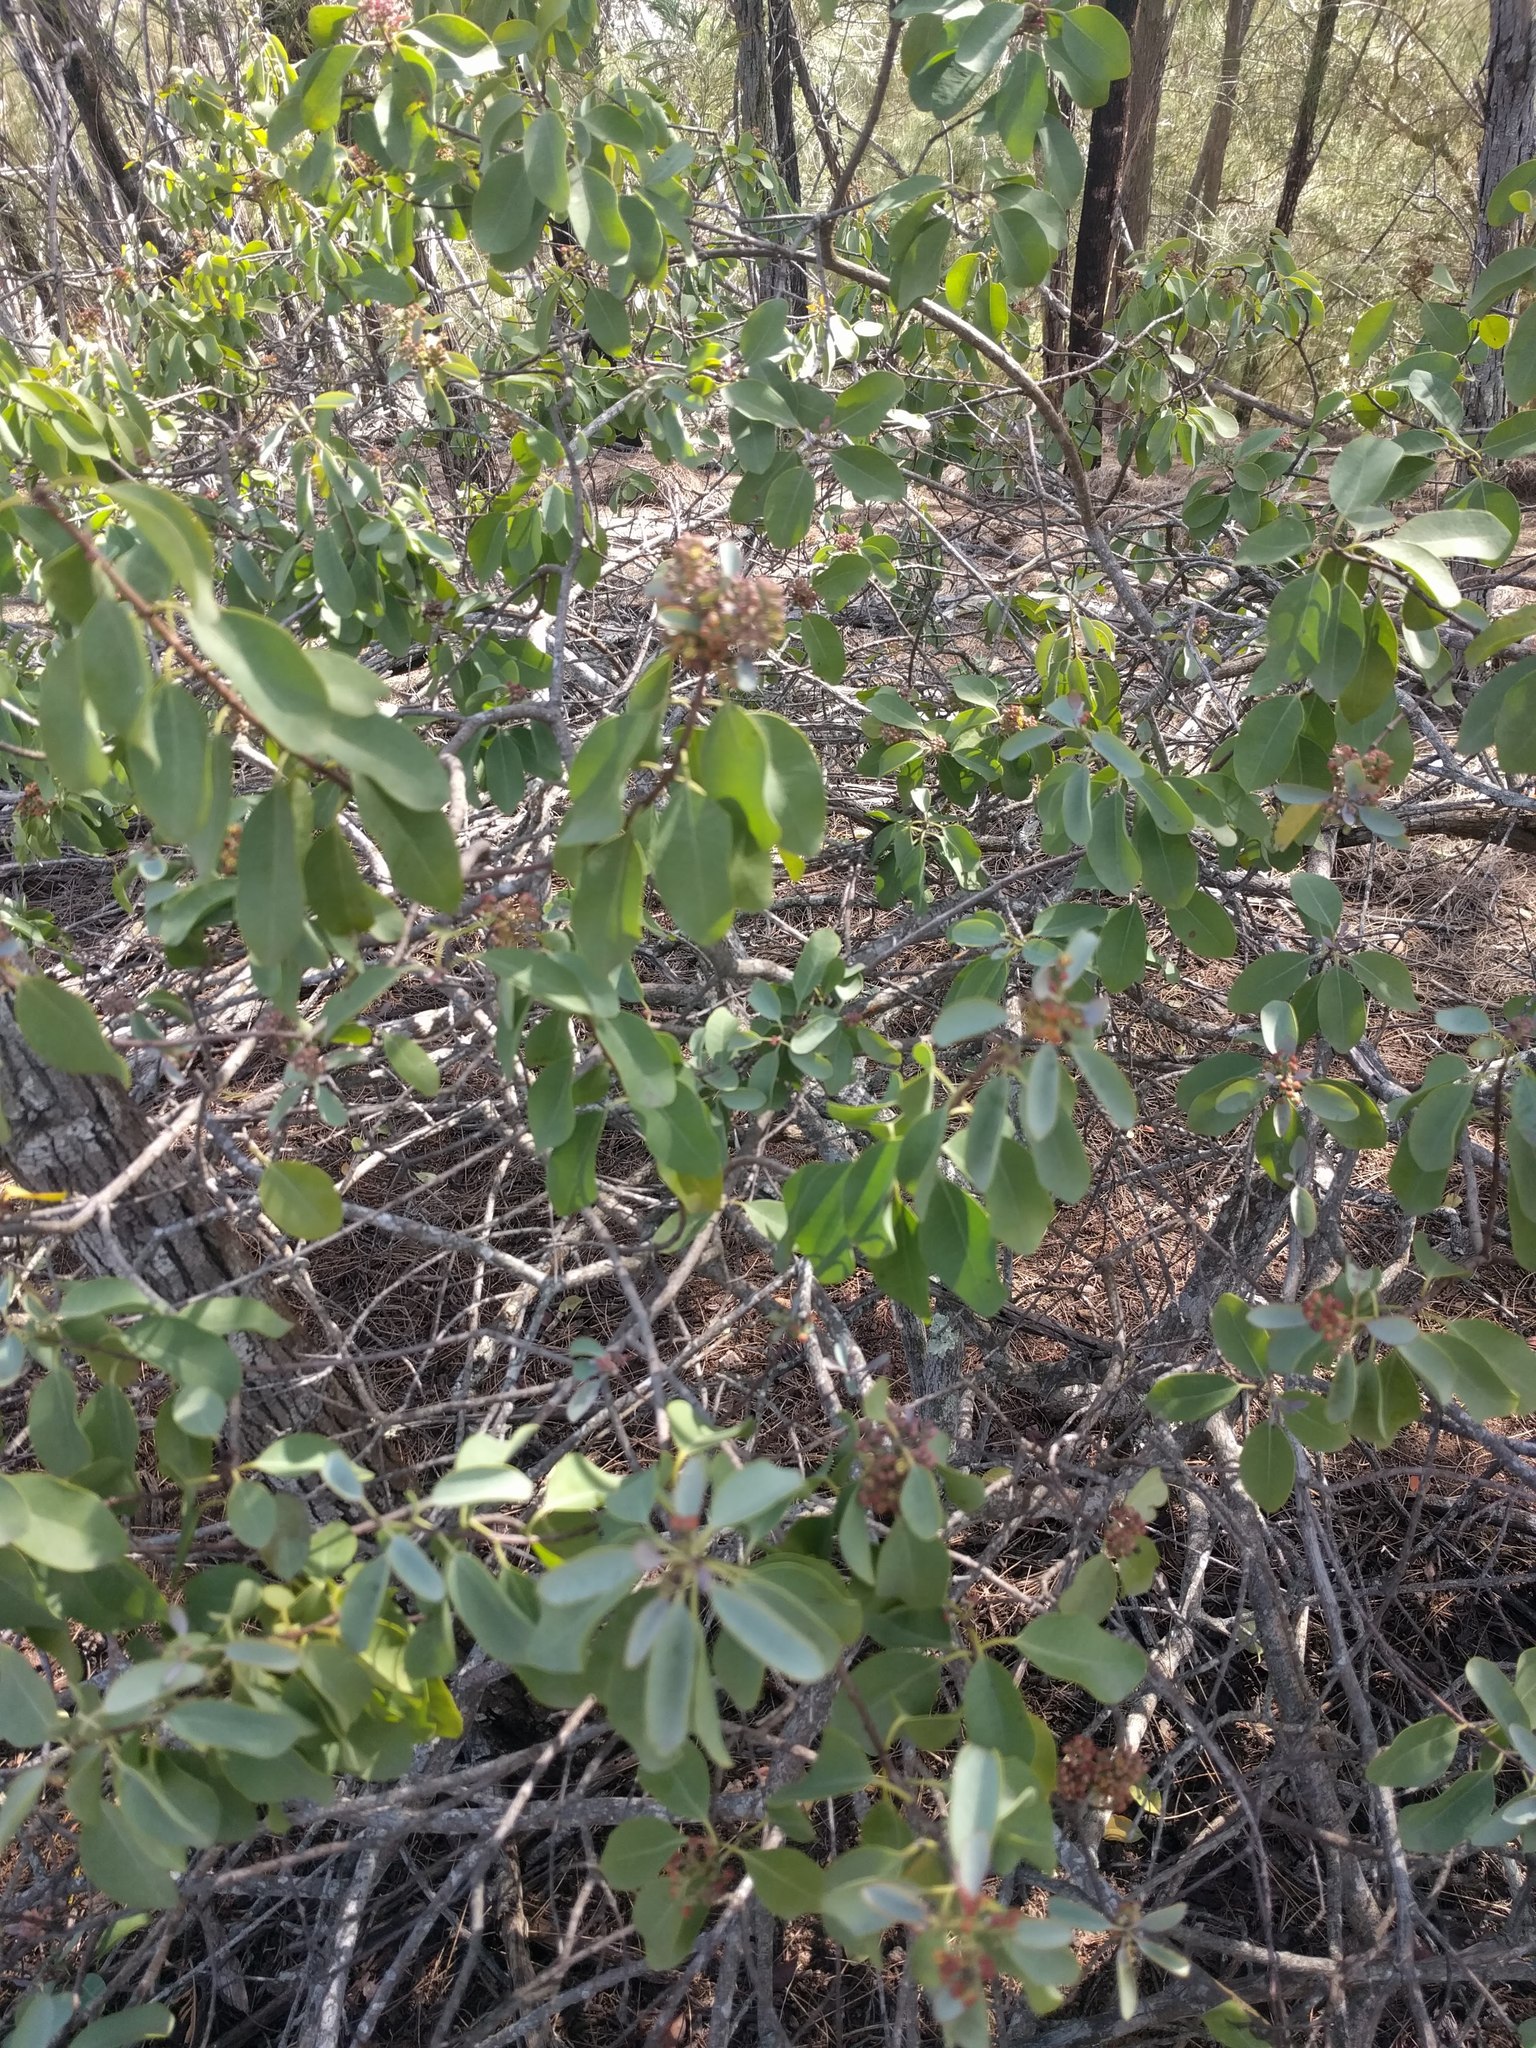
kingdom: Plantae
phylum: Tracheophyta
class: Magnoliopsida
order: Santalales
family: Santalaceae
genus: Santalum
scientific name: Santalum ellipticum
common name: Coast sandalwood
